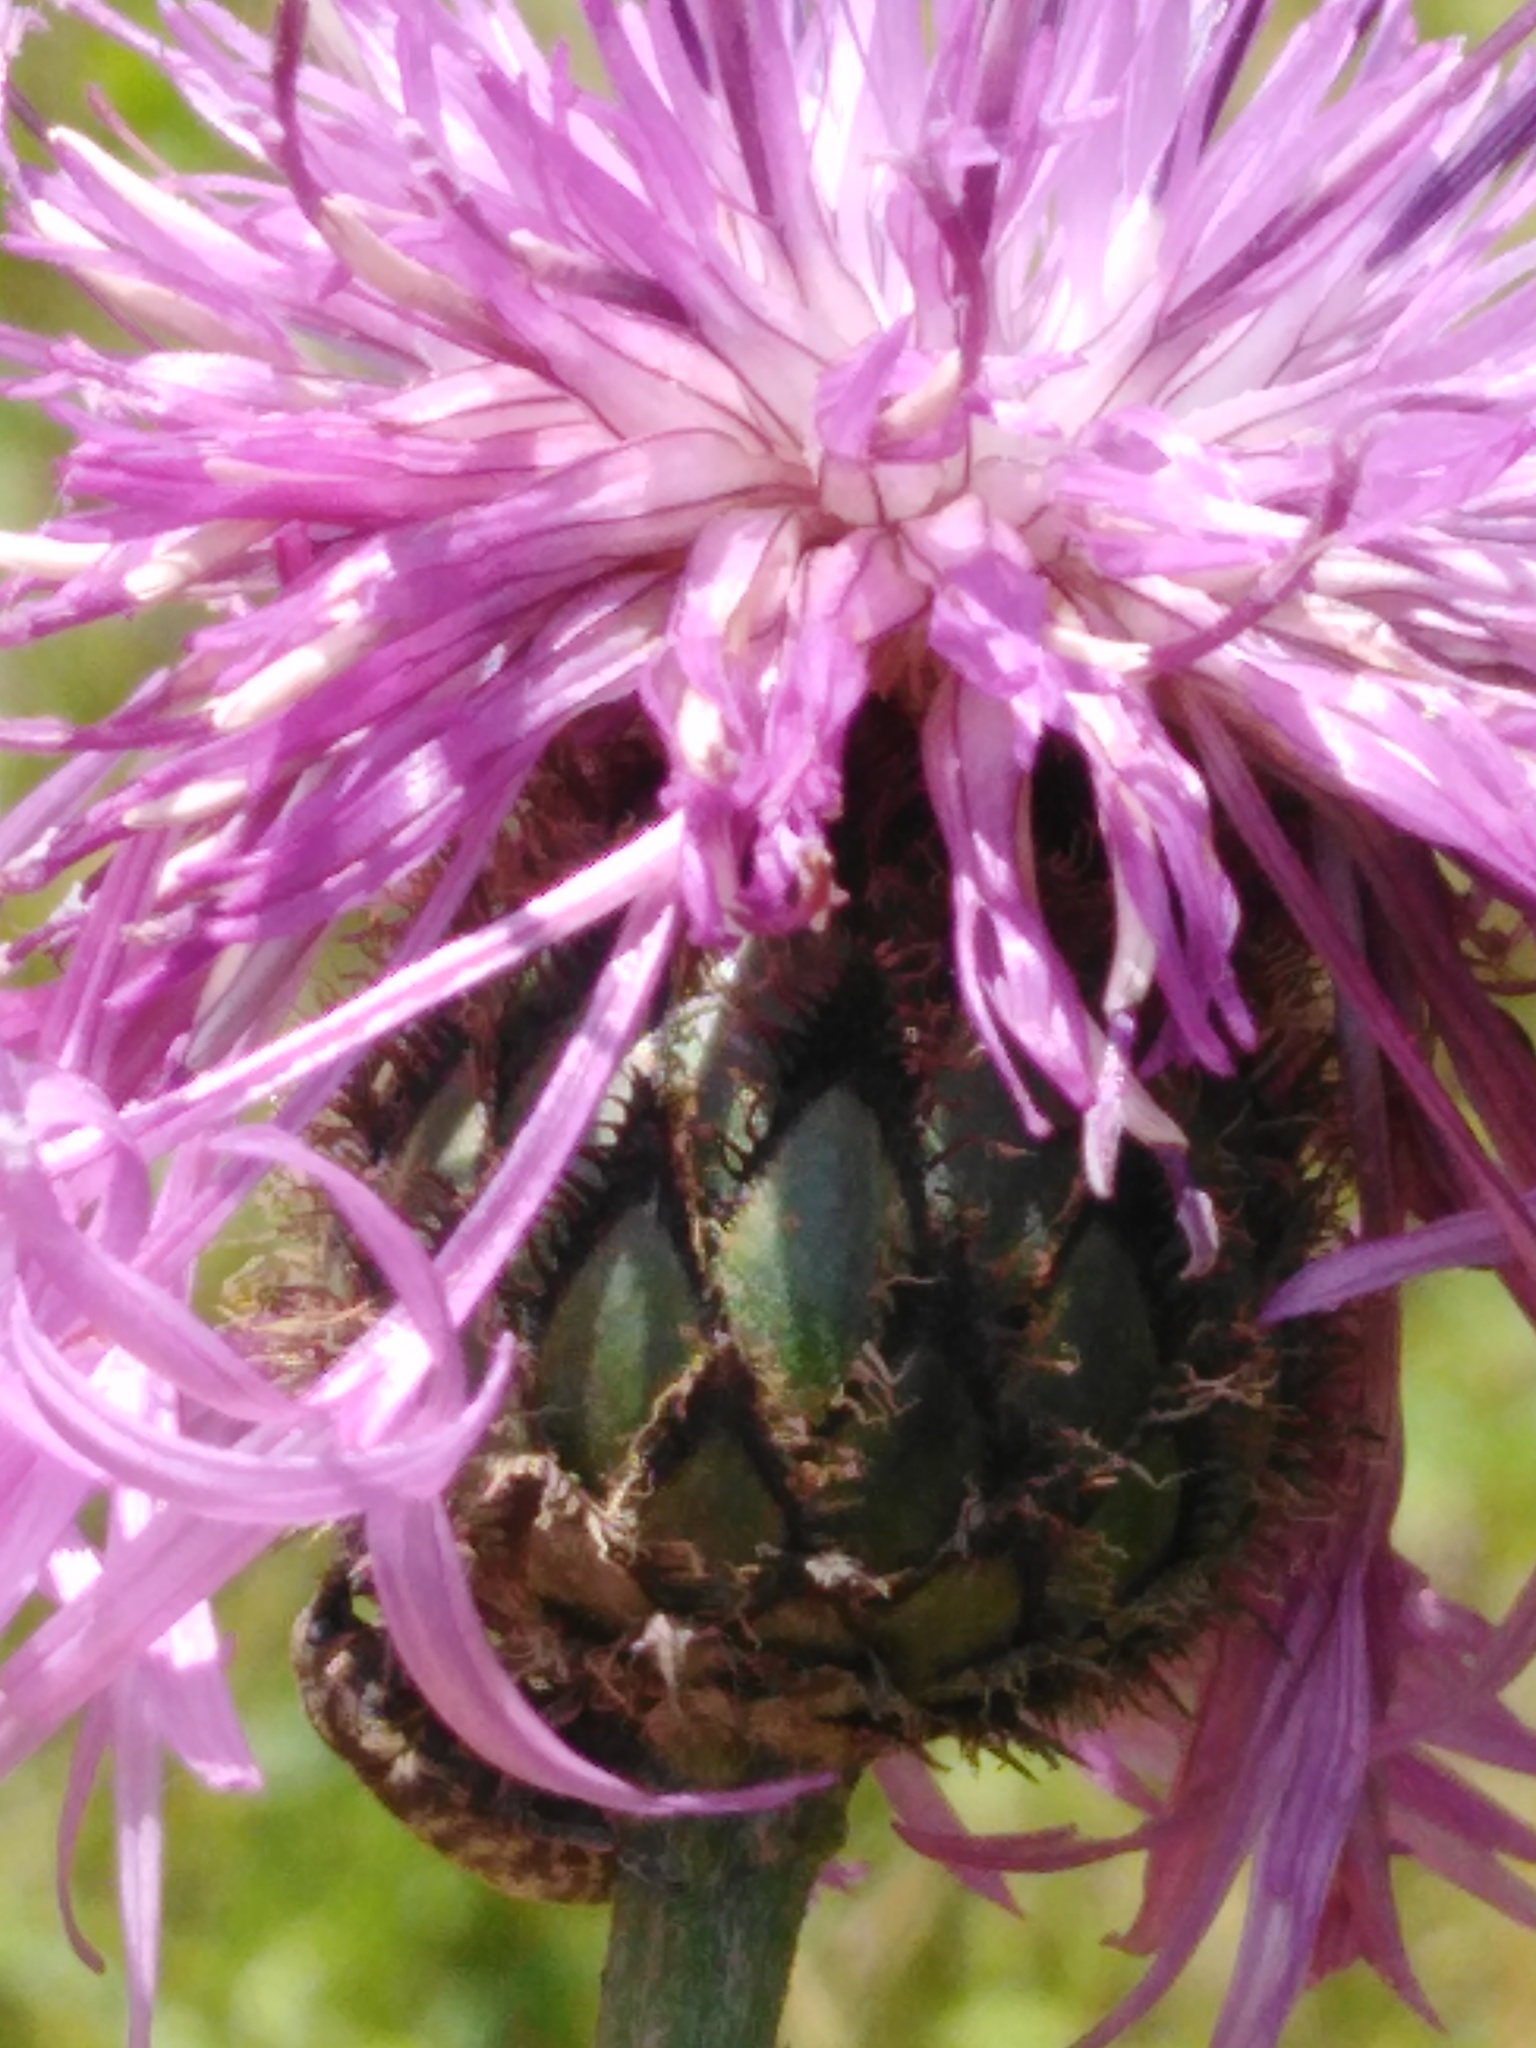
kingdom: Plantae
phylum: Tracheophyta
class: Magnoliopsida
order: Asterales
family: Asteraceae
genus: Centaurea
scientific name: Centaurea scabiosa
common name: Greater knapweed
